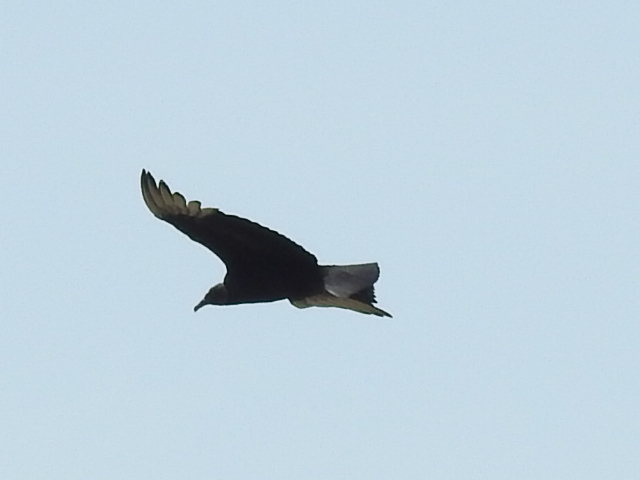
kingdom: Animalia
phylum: Chordata
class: Aves
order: Accipitriformes
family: Cathartidae
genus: Coragyps
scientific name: Coragyps atratus
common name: Black vulture
